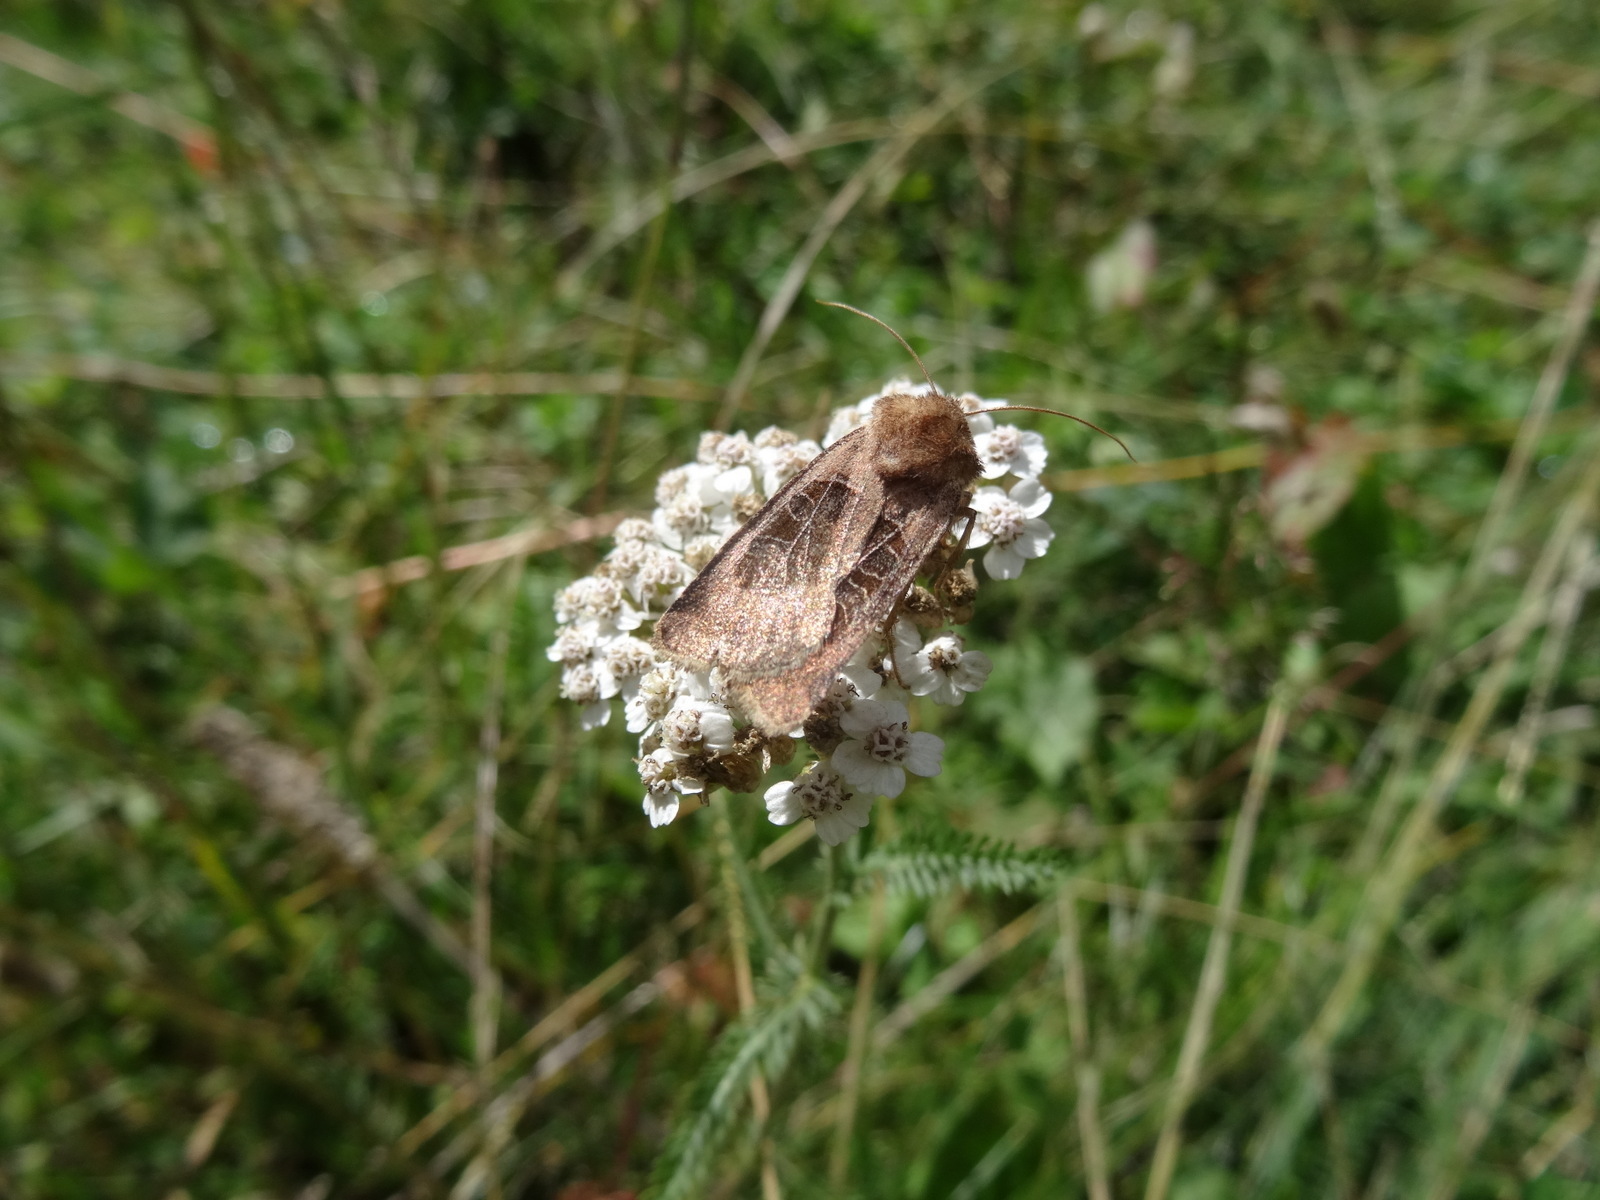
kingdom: Animalia
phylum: Arthropoda
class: Insecta
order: Lepidoptera
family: Noctuidae
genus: Chersotis
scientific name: Chersotis cuprea
